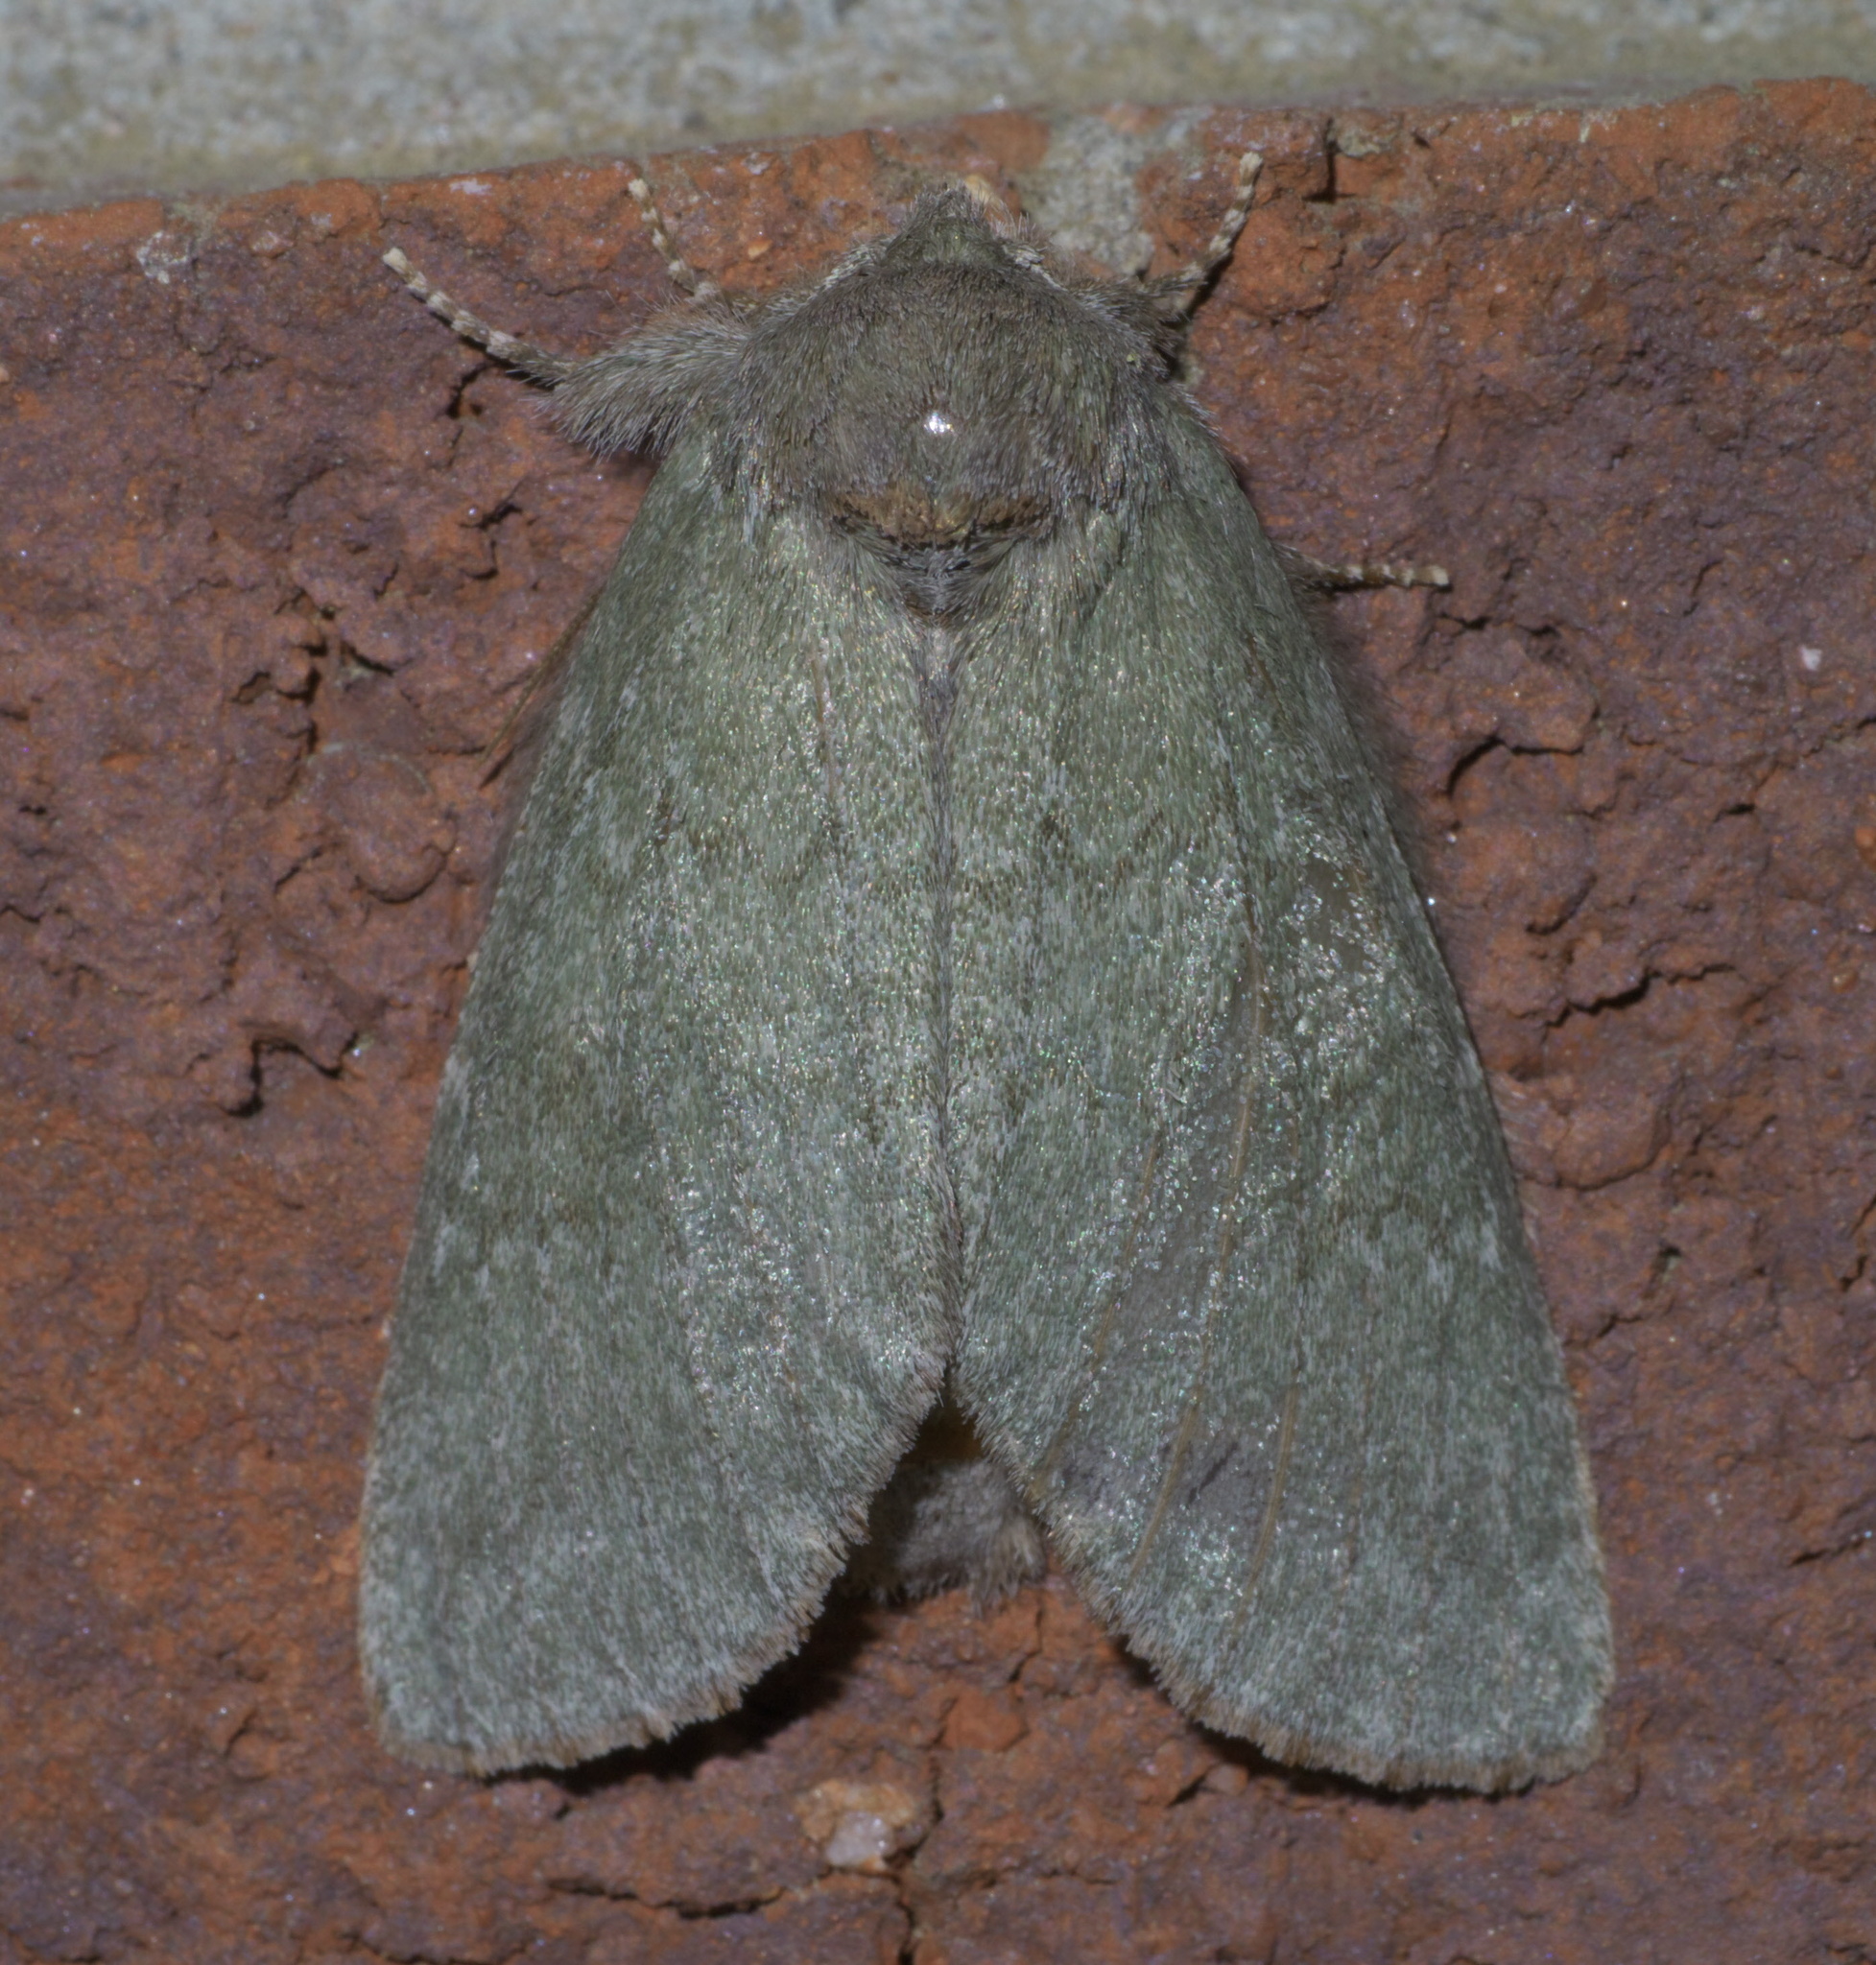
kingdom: Animalia
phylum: Arthropoda
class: Insecta
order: Lepidoptera
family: Notodontidae
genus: Misogada
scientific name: Misogada unicolor
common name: Drab prominent
